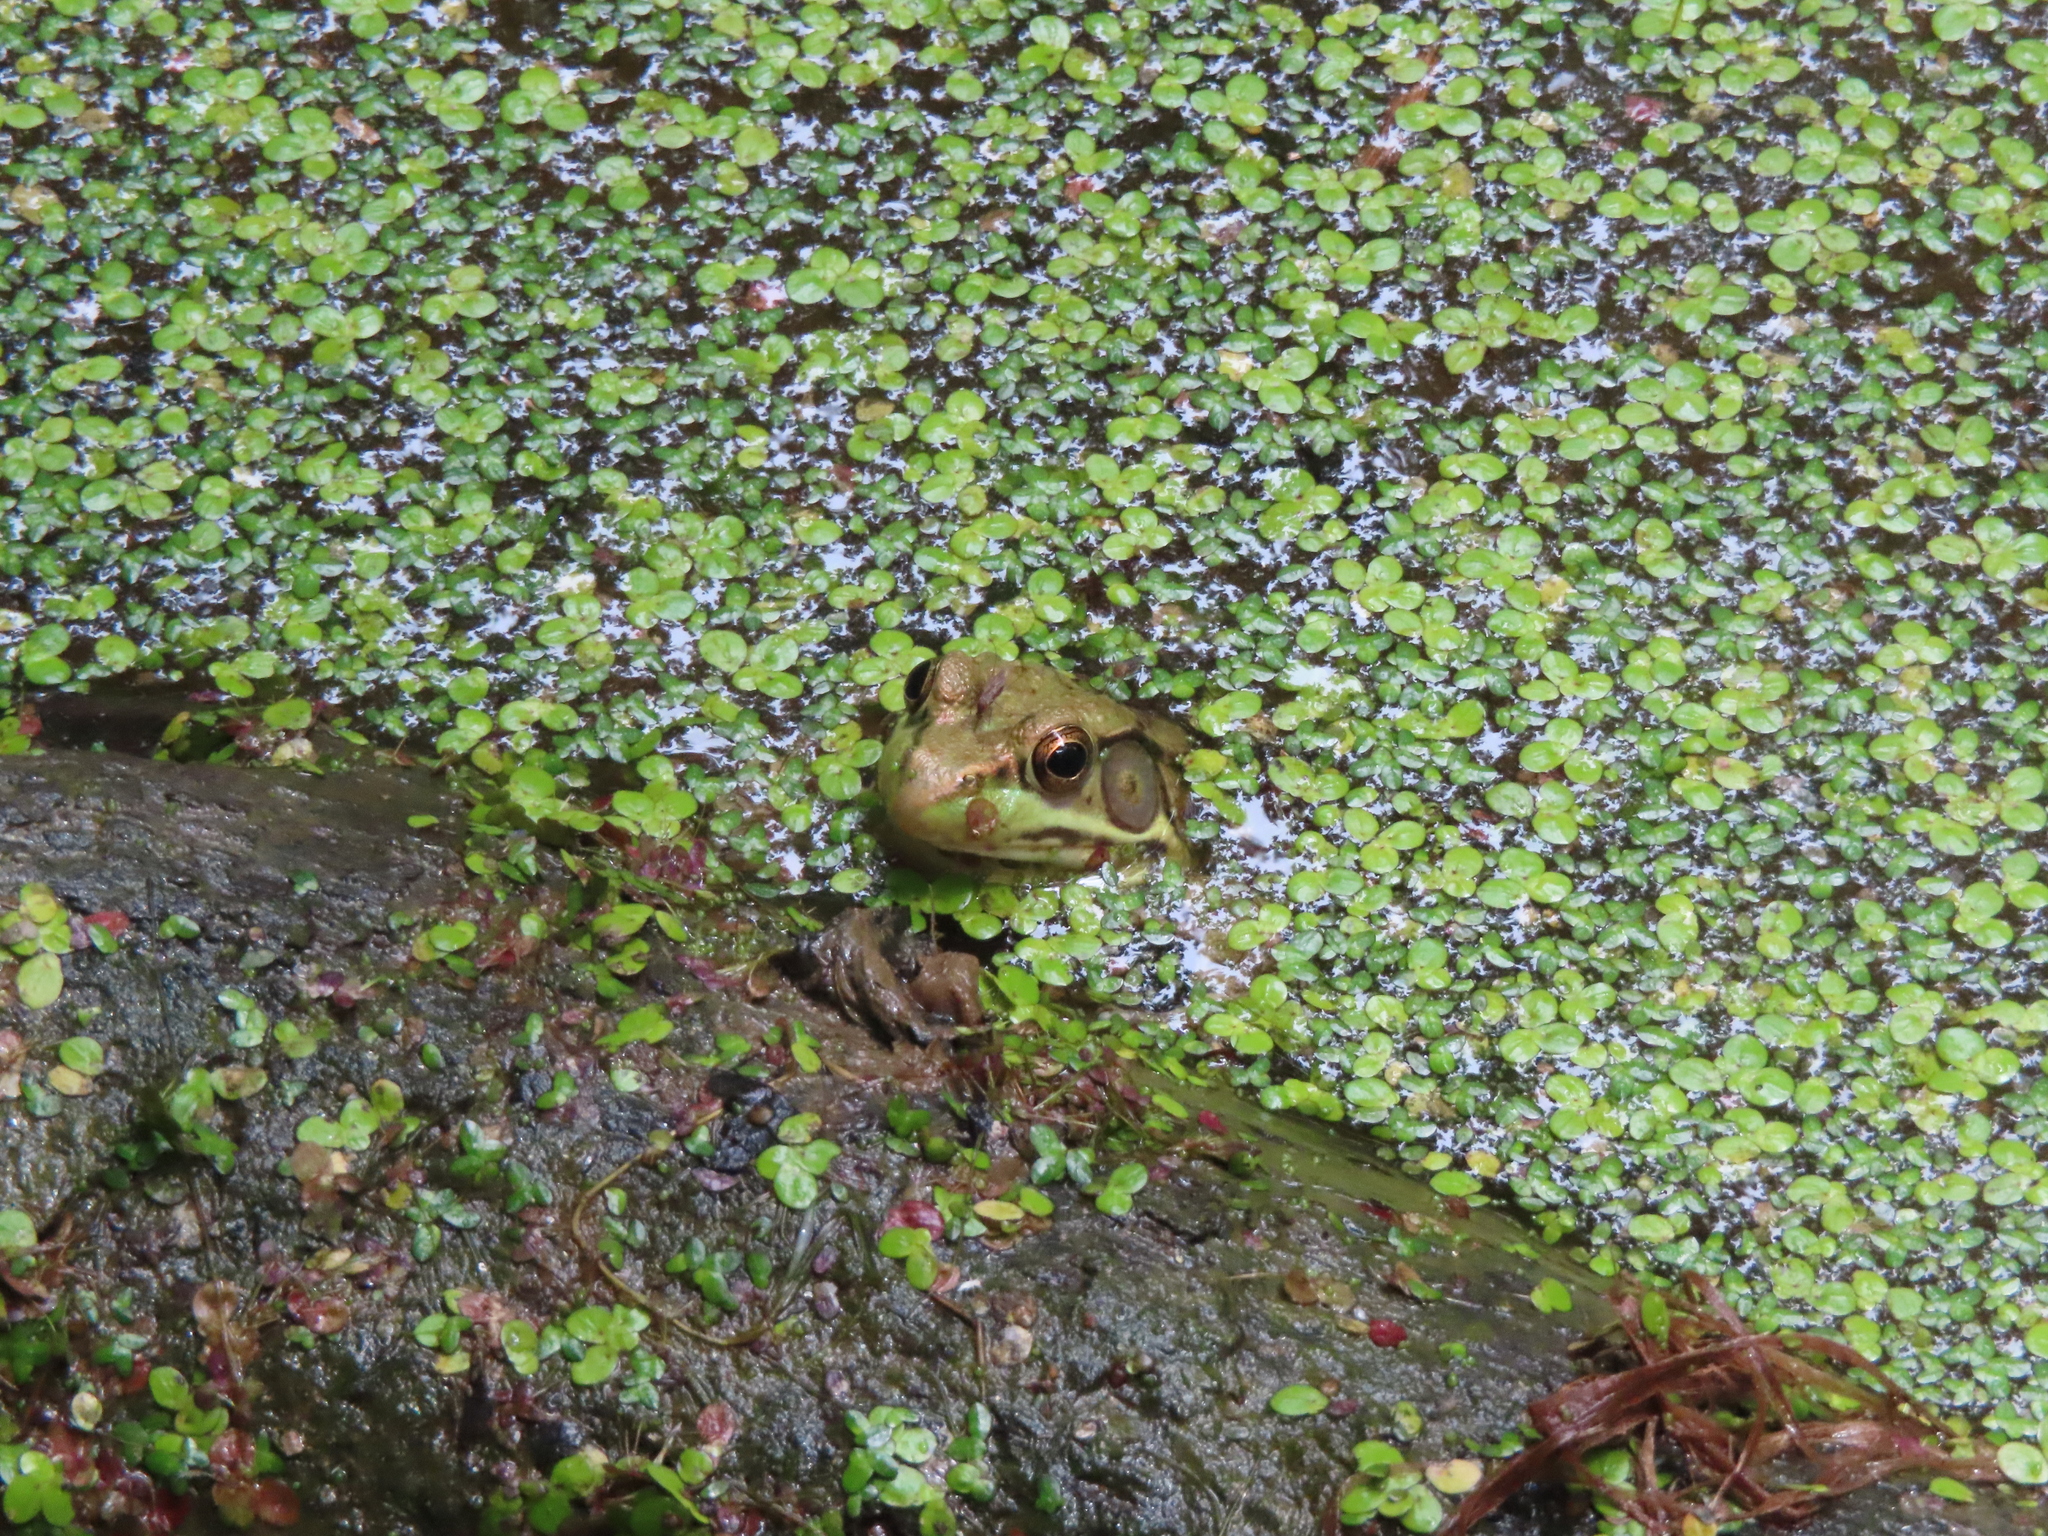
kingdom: Animalia
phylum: Chordata
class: Amphibia
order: Anura
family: Ranidae
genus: Lithobates
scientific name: Lithobates clamitans
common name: Green frog
